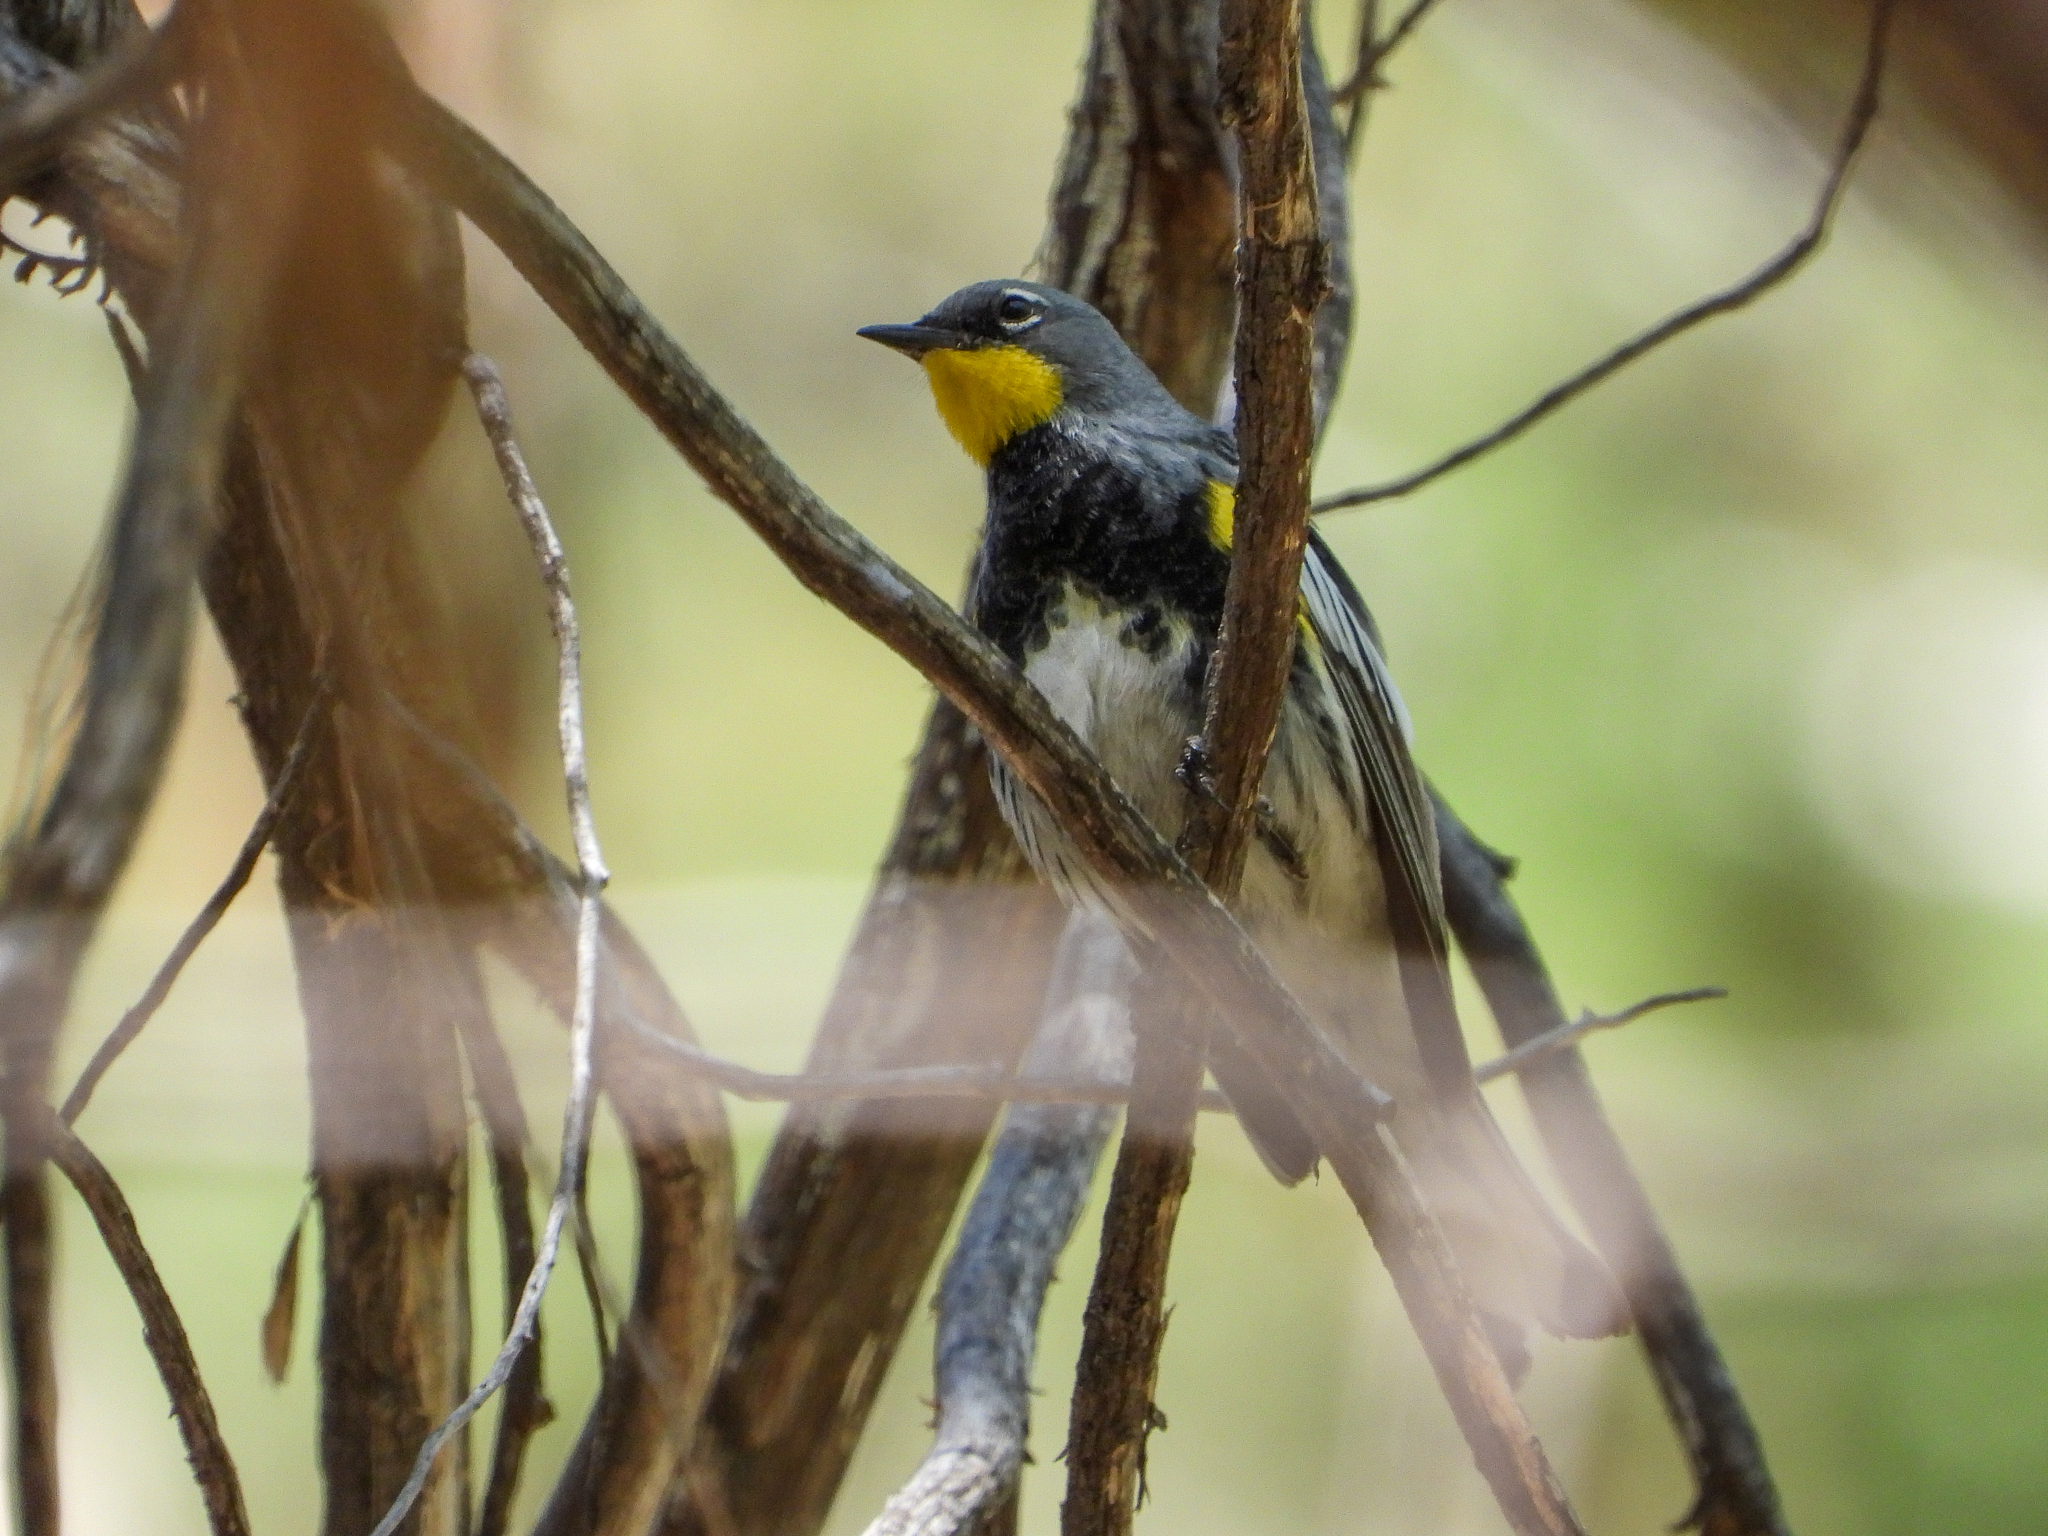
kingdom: Animalia
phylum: Chordata
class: Aves
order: Passeriformes
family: Parulidae
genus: Setophaga
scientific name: Setophaga coronata
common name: Myrtle warbler
